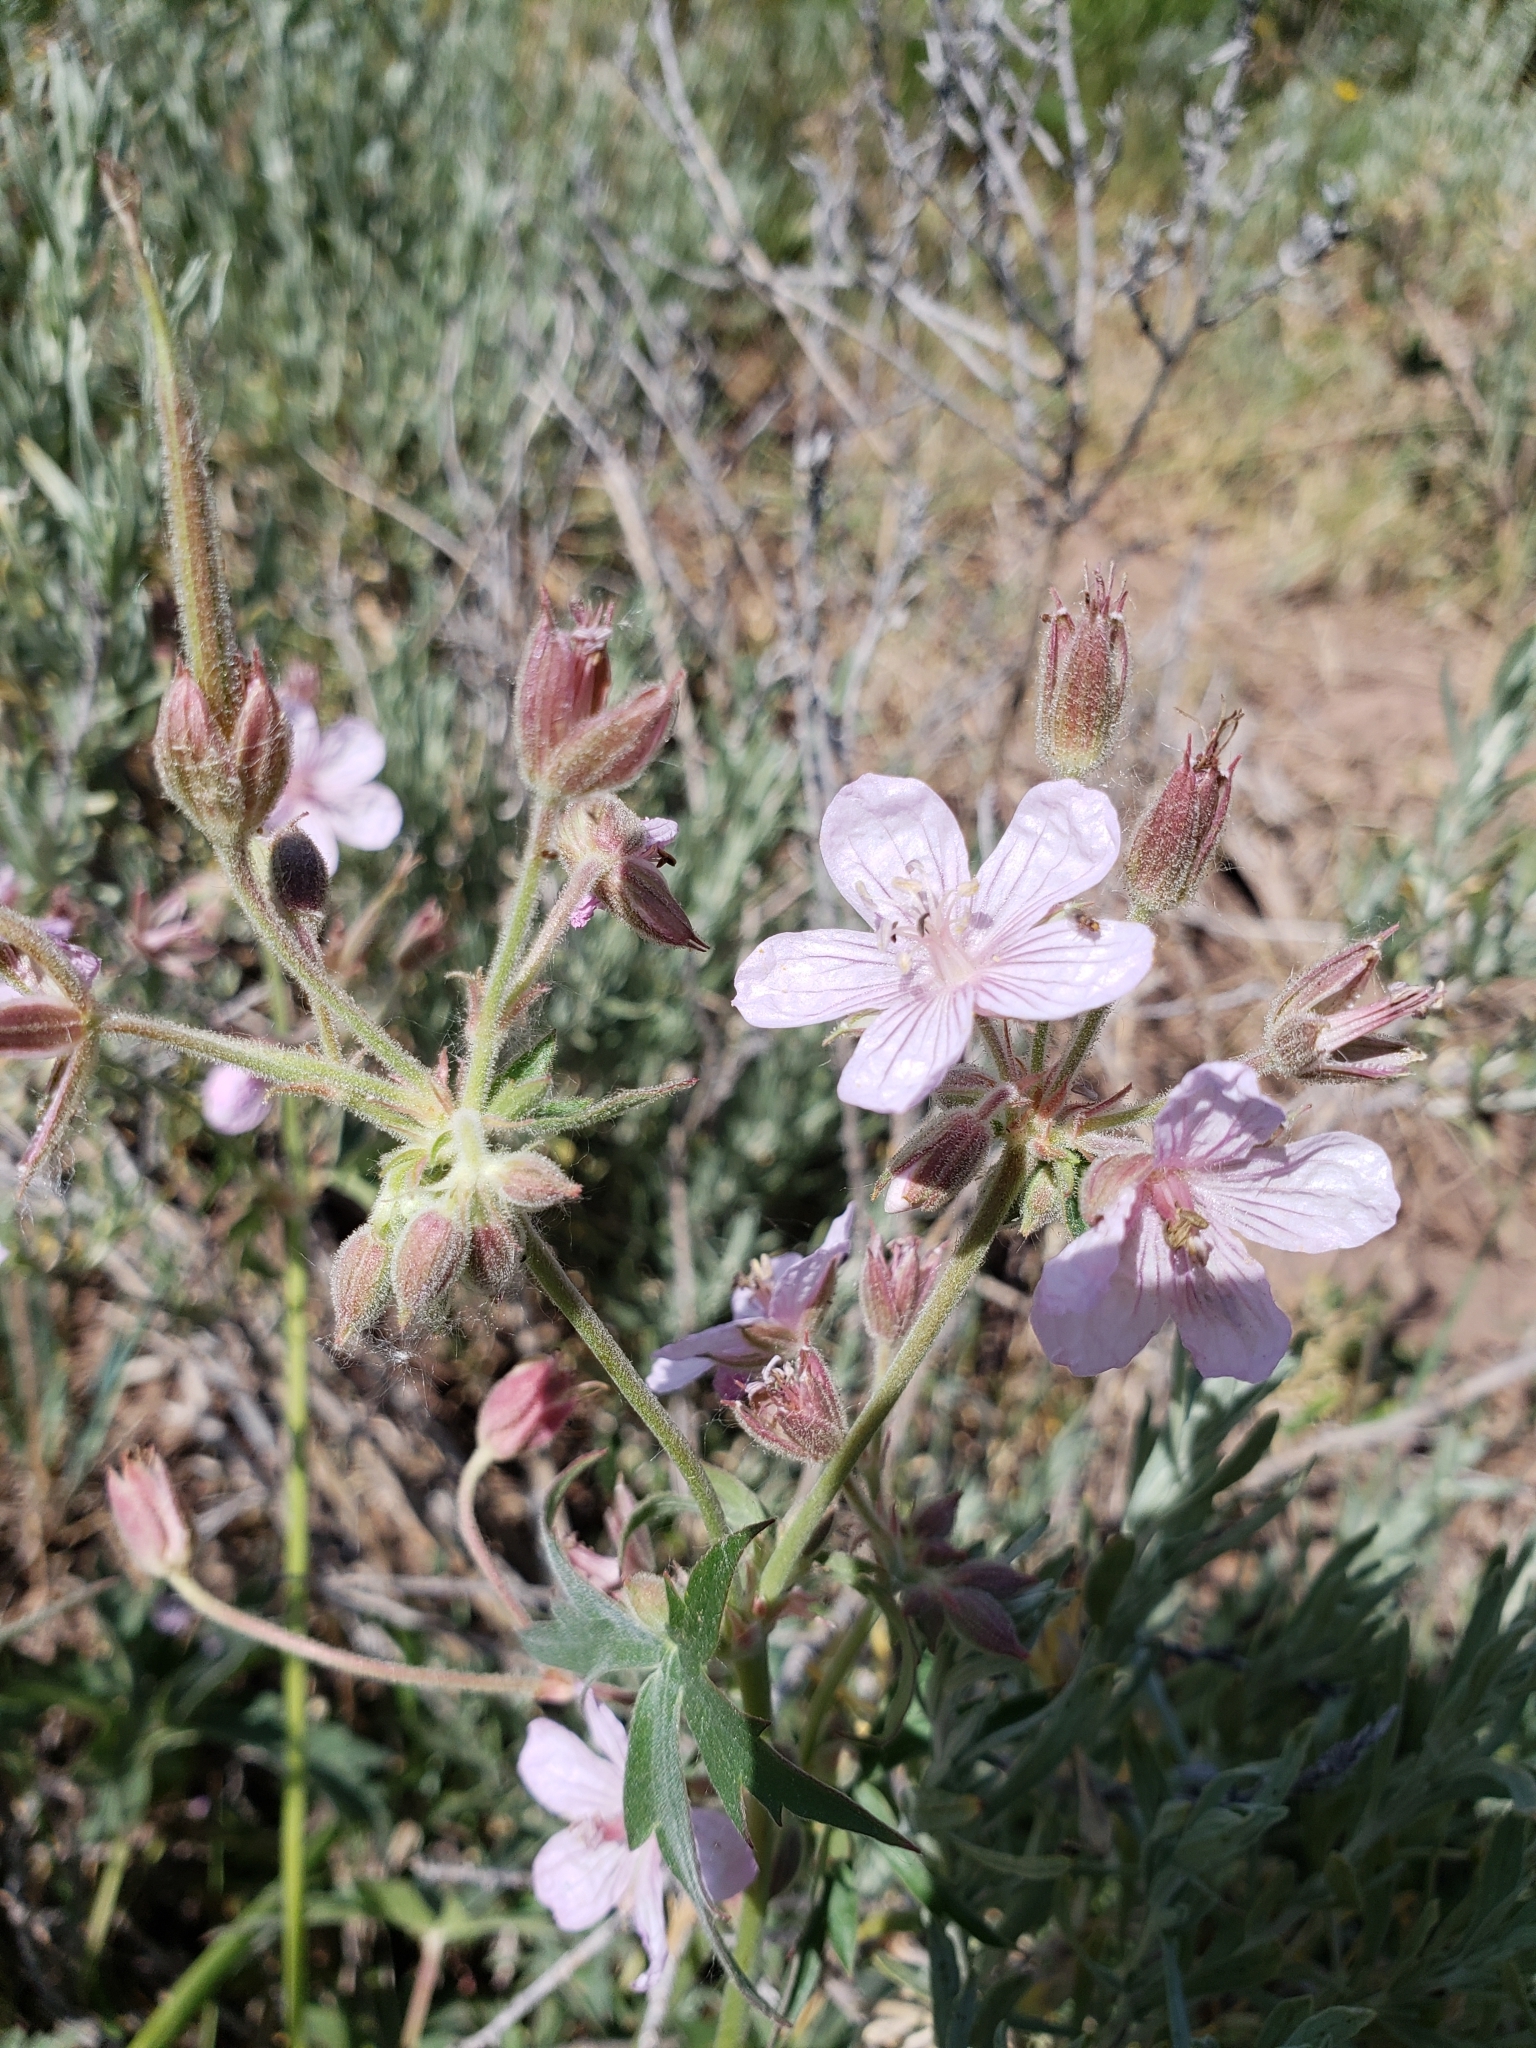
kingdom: Plantae
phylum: Tracheophyta
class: Magnoliopsida
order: Geraniales
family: Geraniaceae
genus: Geranium
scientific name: Geranium viscosissimum
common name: Purple geranium
